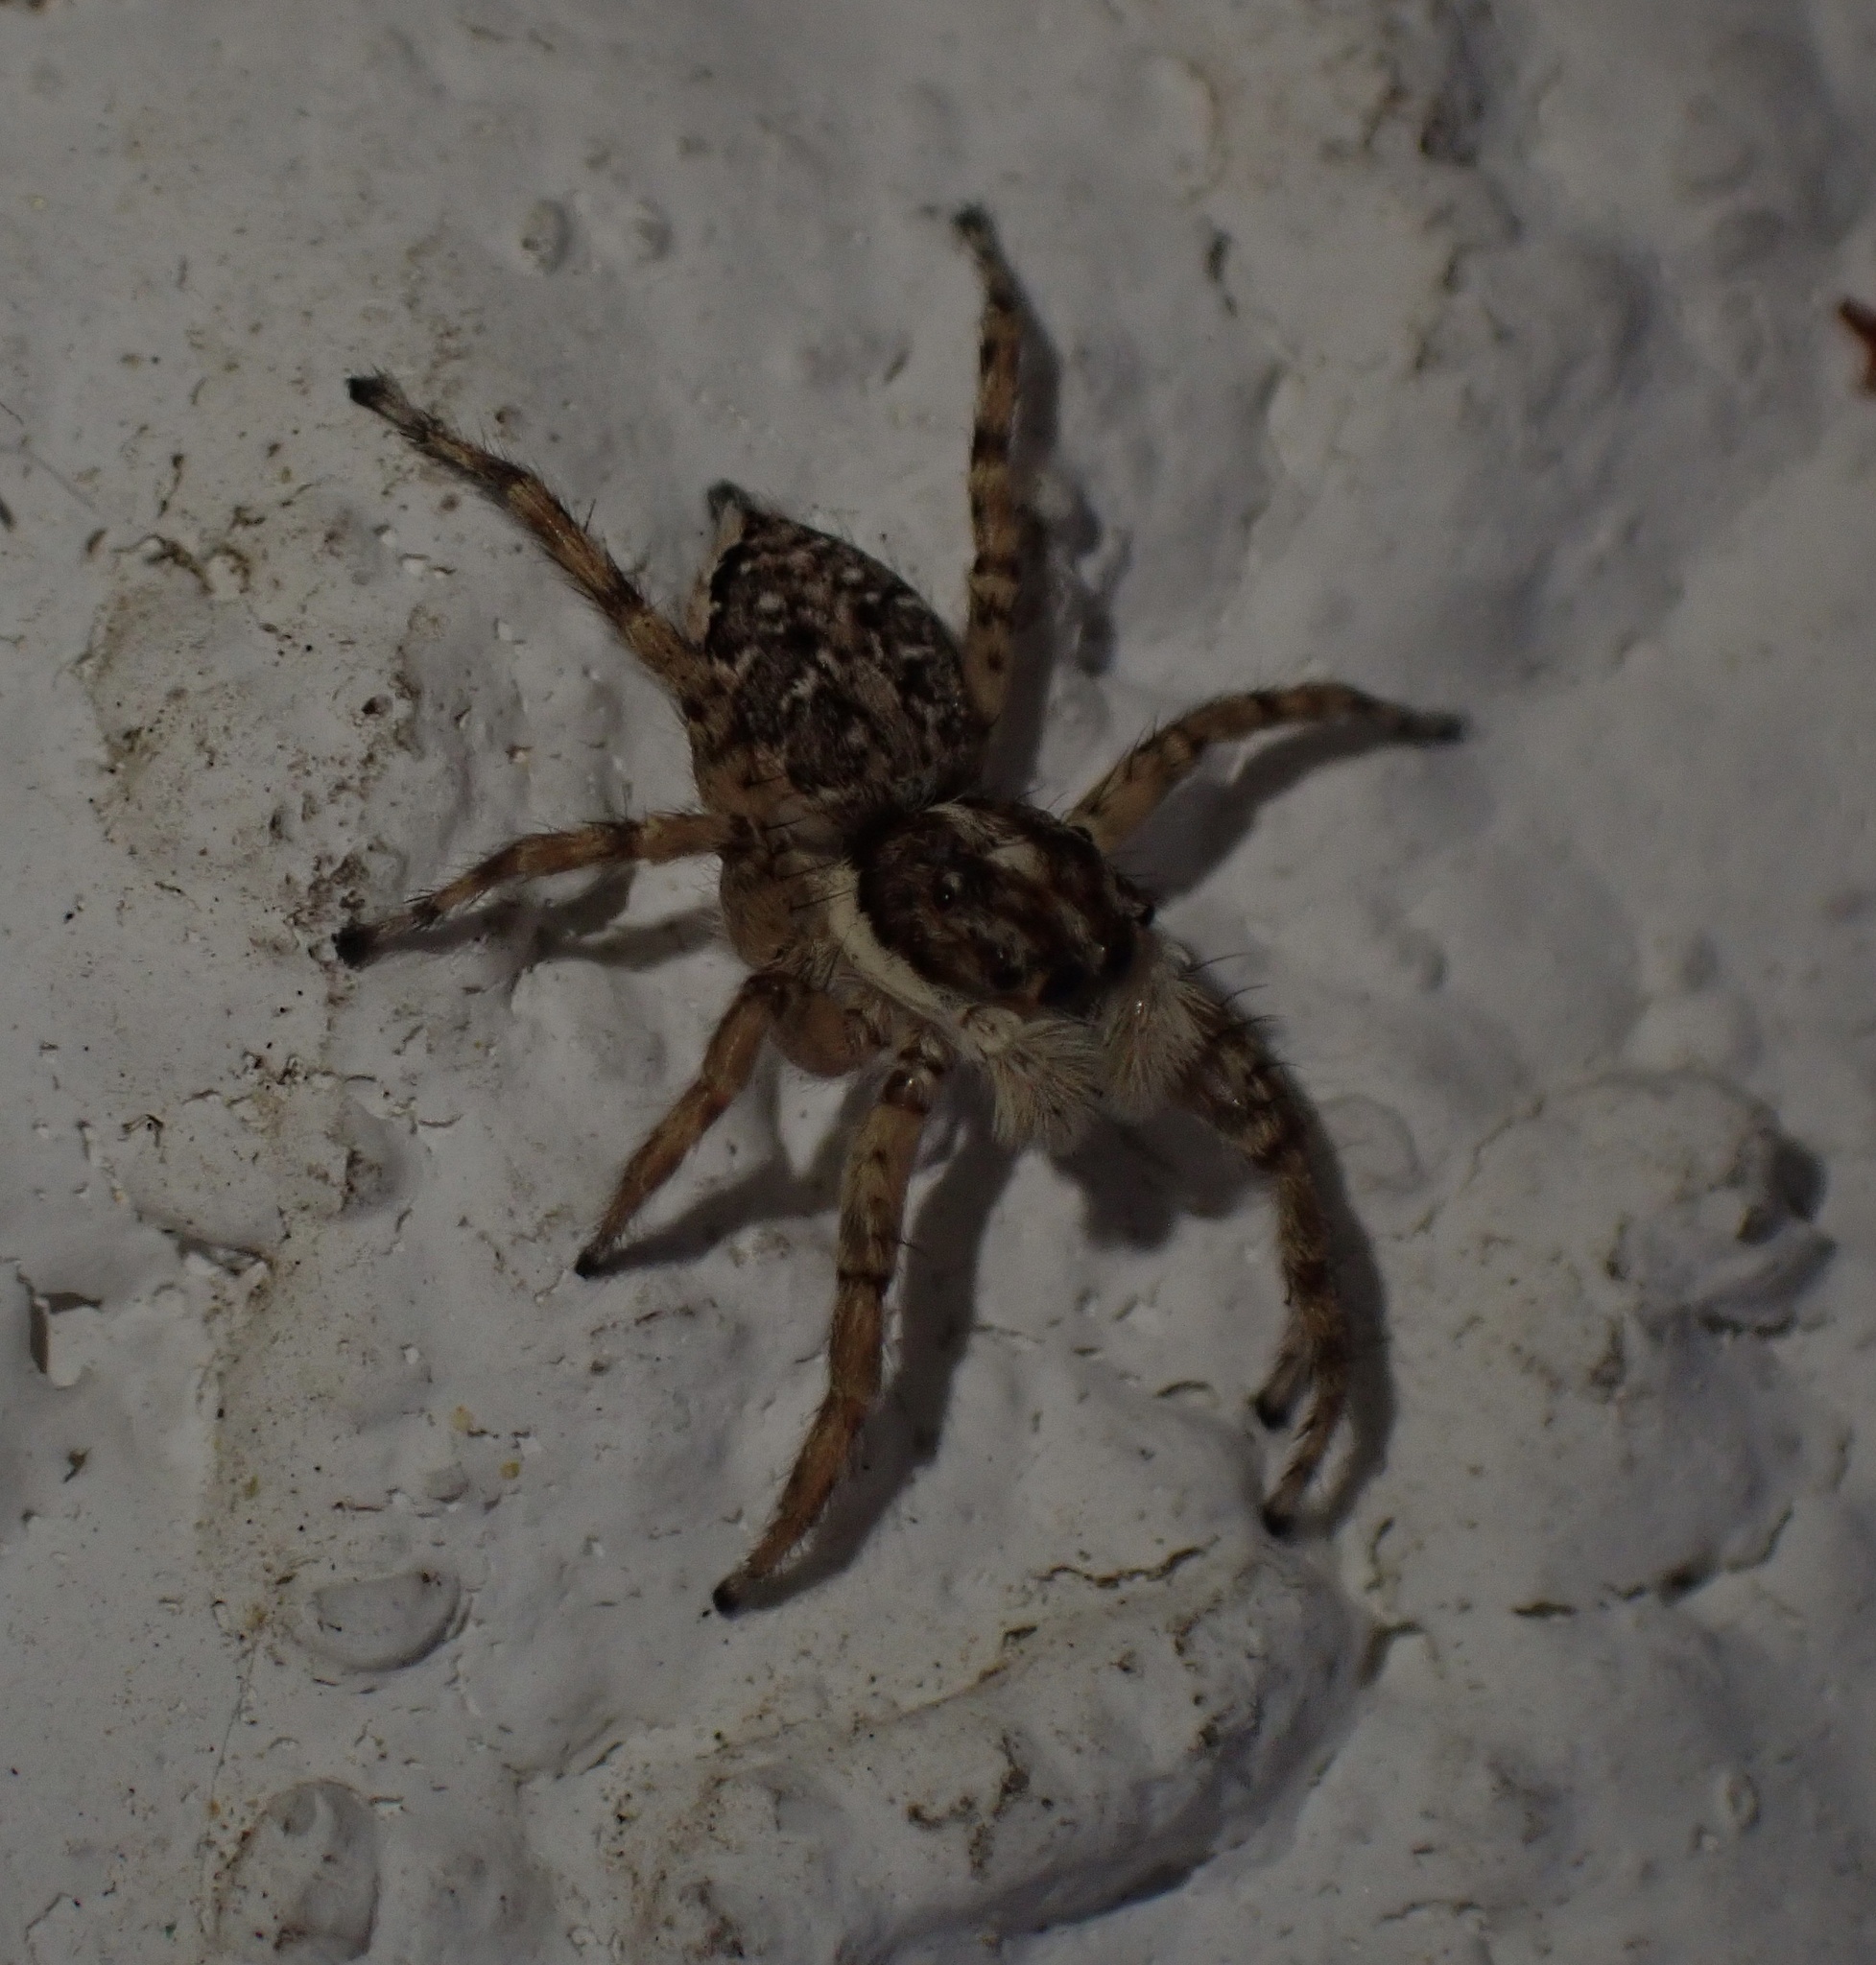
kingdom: Animalia
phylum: Arthropoda
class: Arachnida
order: Araneae
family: Salticidae
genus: Menemerus
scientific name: Menemerus semilimbatus
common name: Jumping spider
